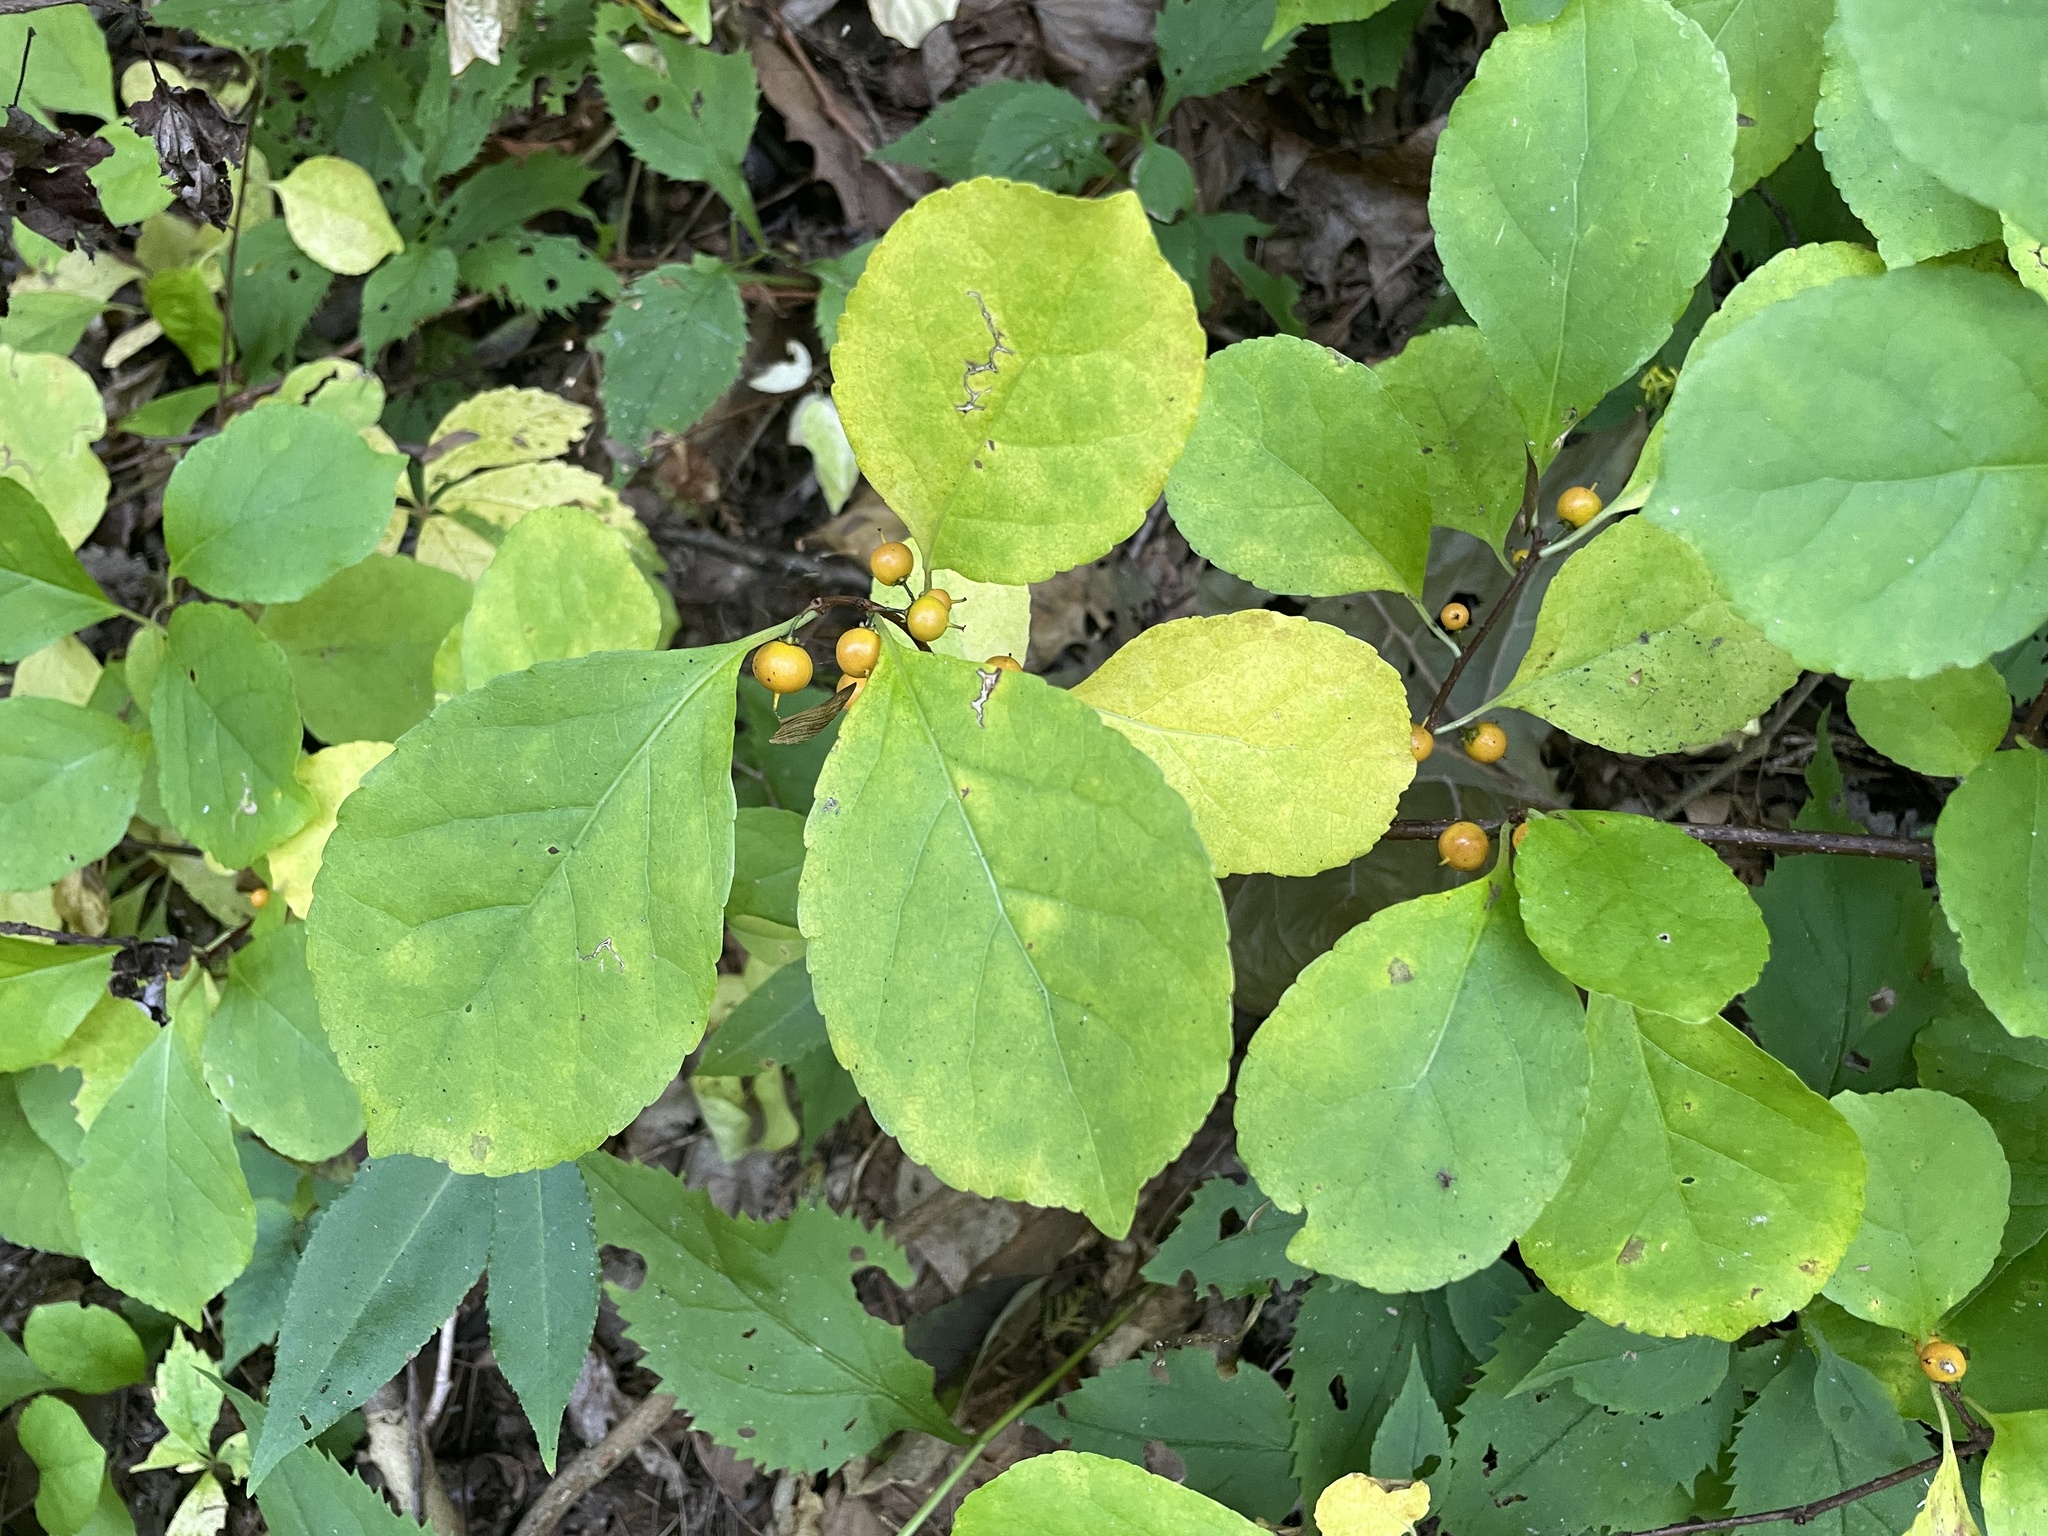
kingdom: Plantae
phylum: Tracheophyta
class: Magnoliopsida
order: Celastrales
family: Celastraceae
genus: Celastrus
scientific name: Celastrus orbiculatus
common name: Oriental bittersweet
